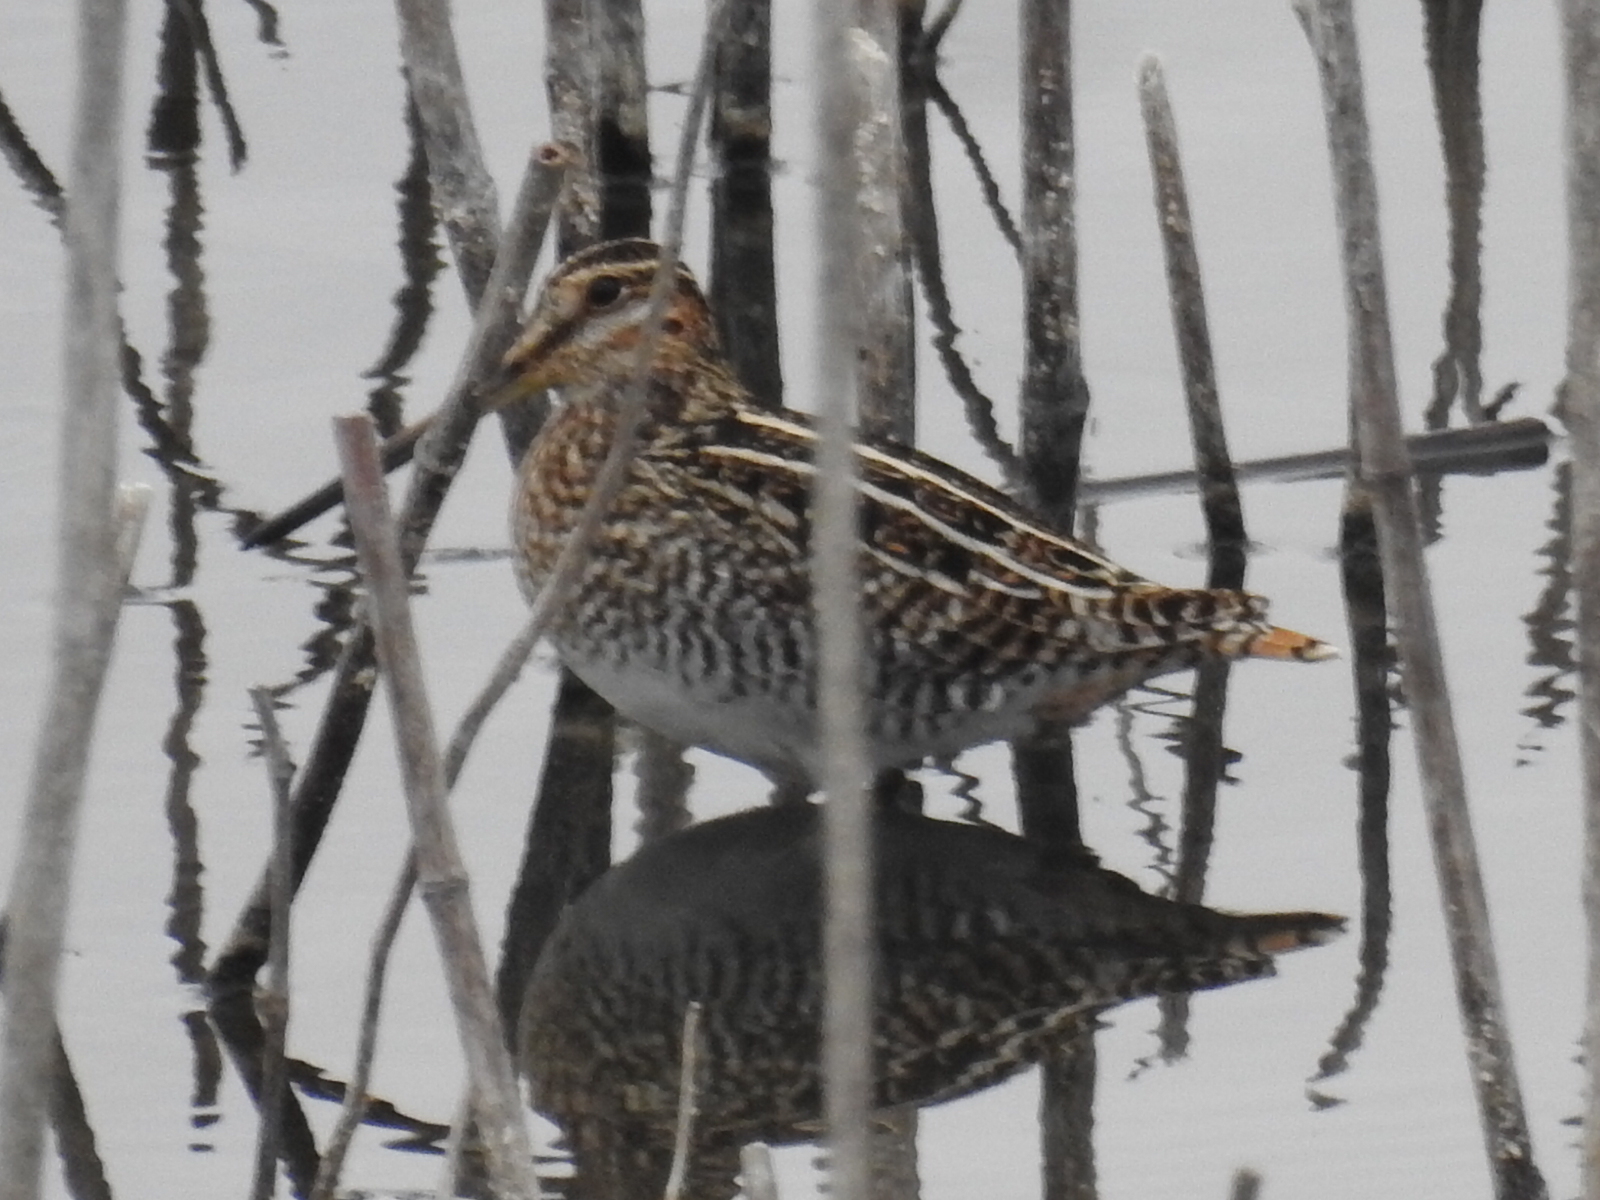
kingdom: Animalia
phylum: Chordata
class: Aves
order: Charadriiformes
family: Scolopacidae
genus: Gallinago
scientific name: Gallinago delicata
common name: Wilson's snipe
